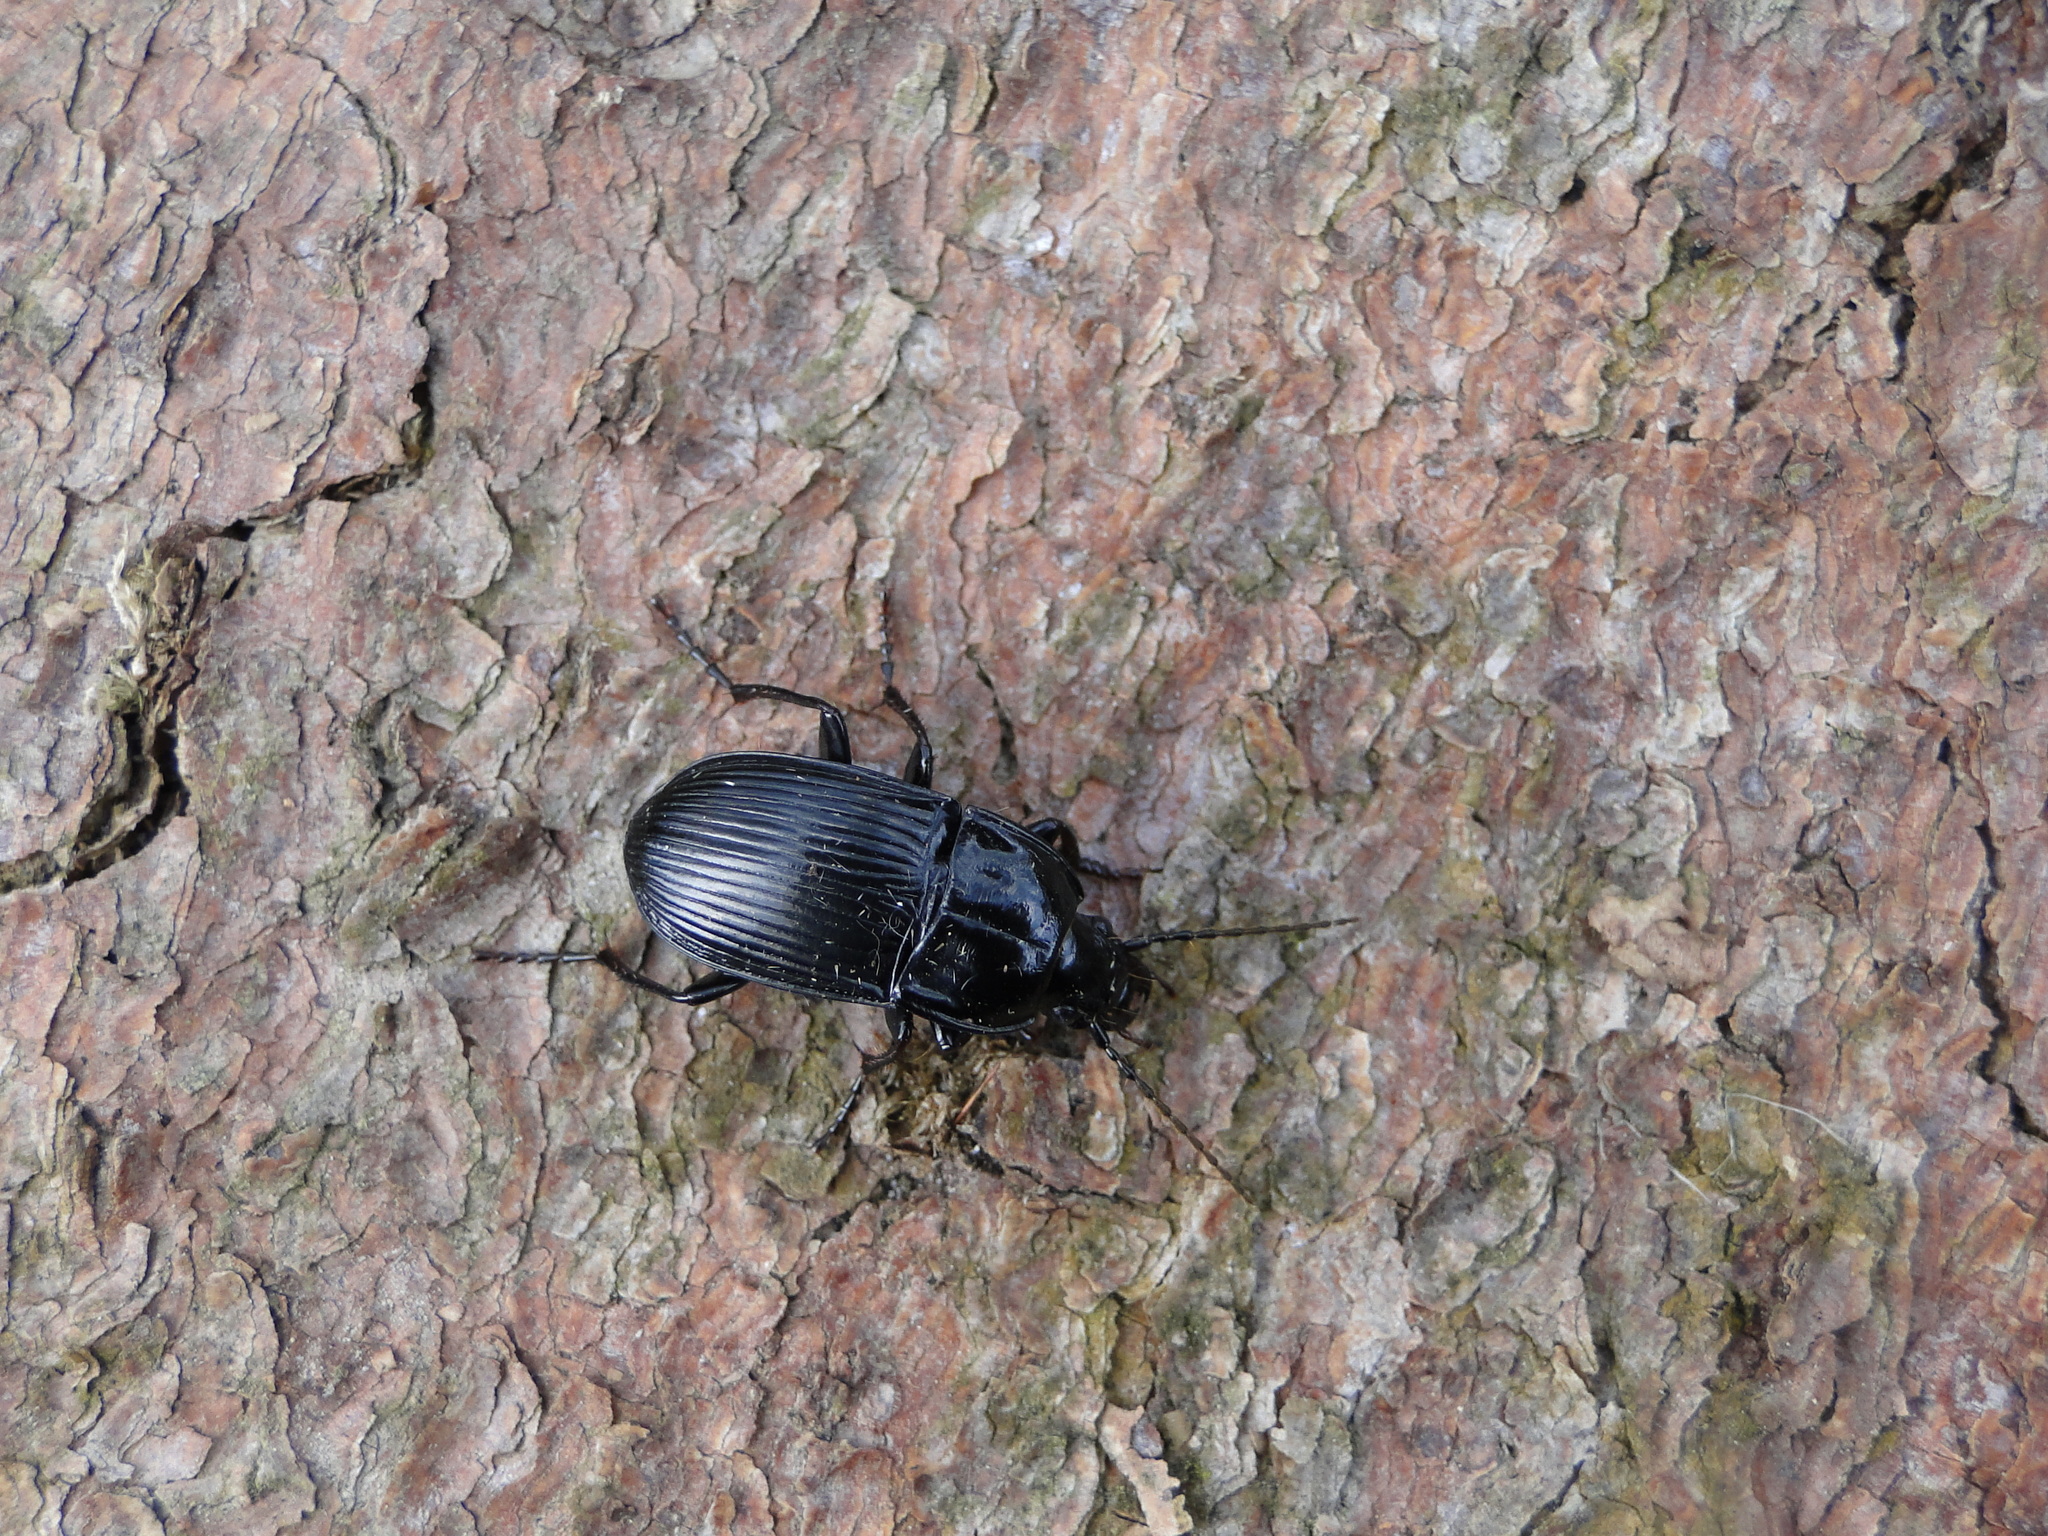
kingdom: Animalia
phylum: Arthropoda
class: Insecta
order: Coleoptera
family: Carabidae
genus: Abax
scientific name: Abax parallelepipedus
